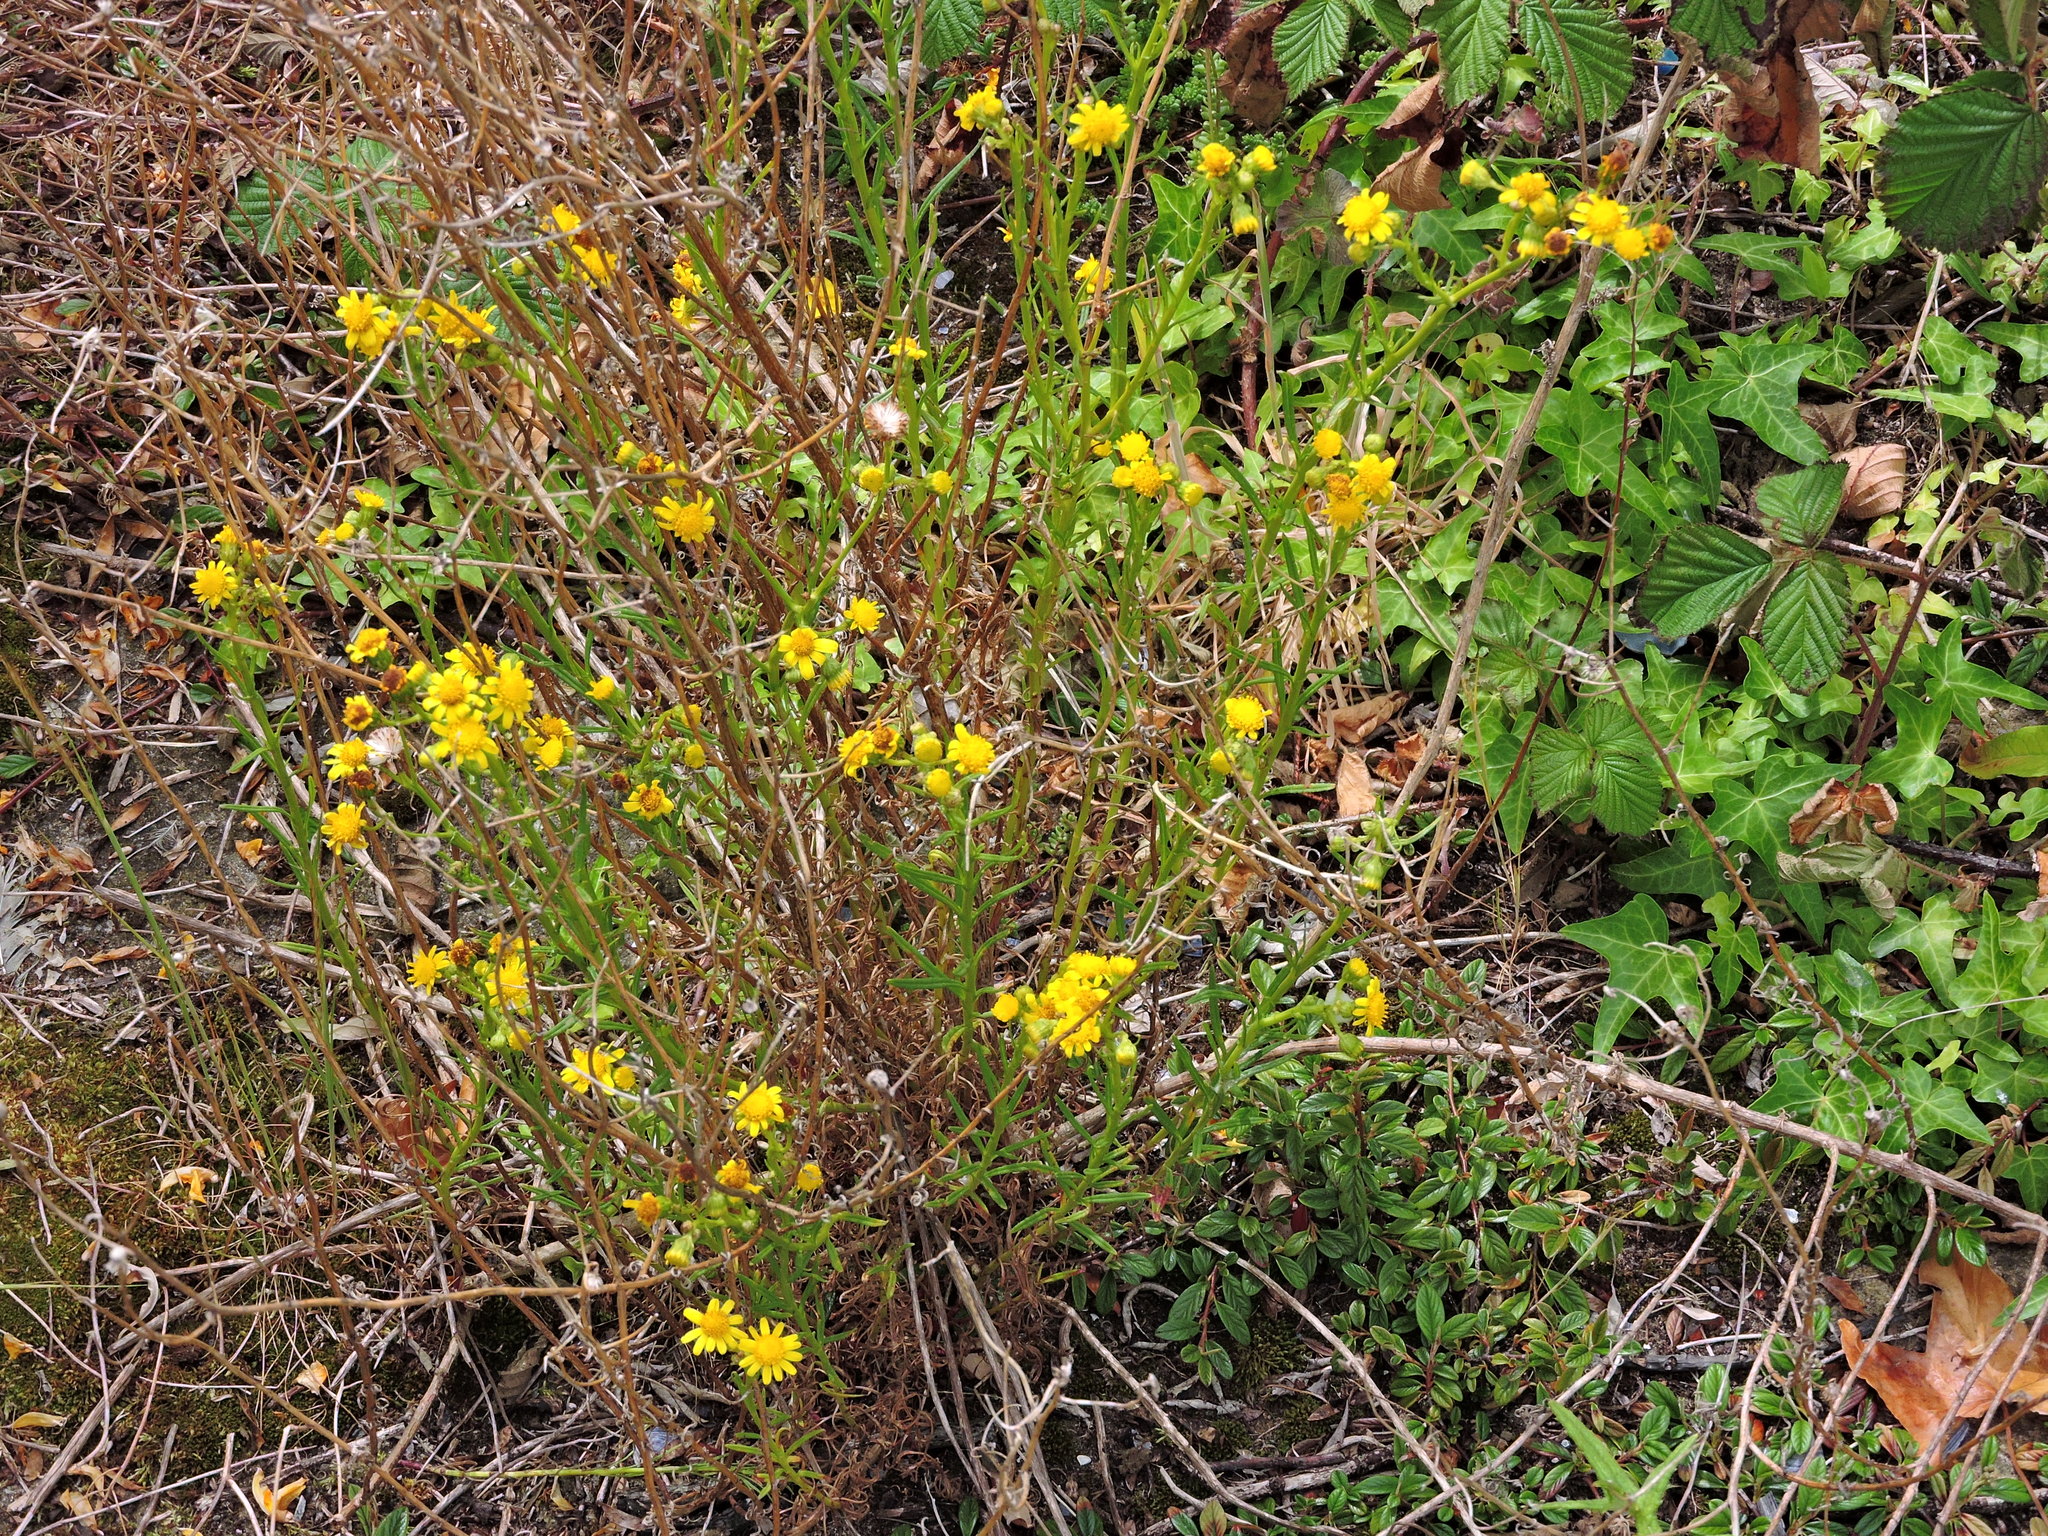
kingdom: Plantae
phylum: Tracheophyta
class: Magnoliopsida
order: Asterales
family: Asteraceae
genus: Senecio
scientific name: Senecio inaequidens
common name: Narrow-leaved ragwort
